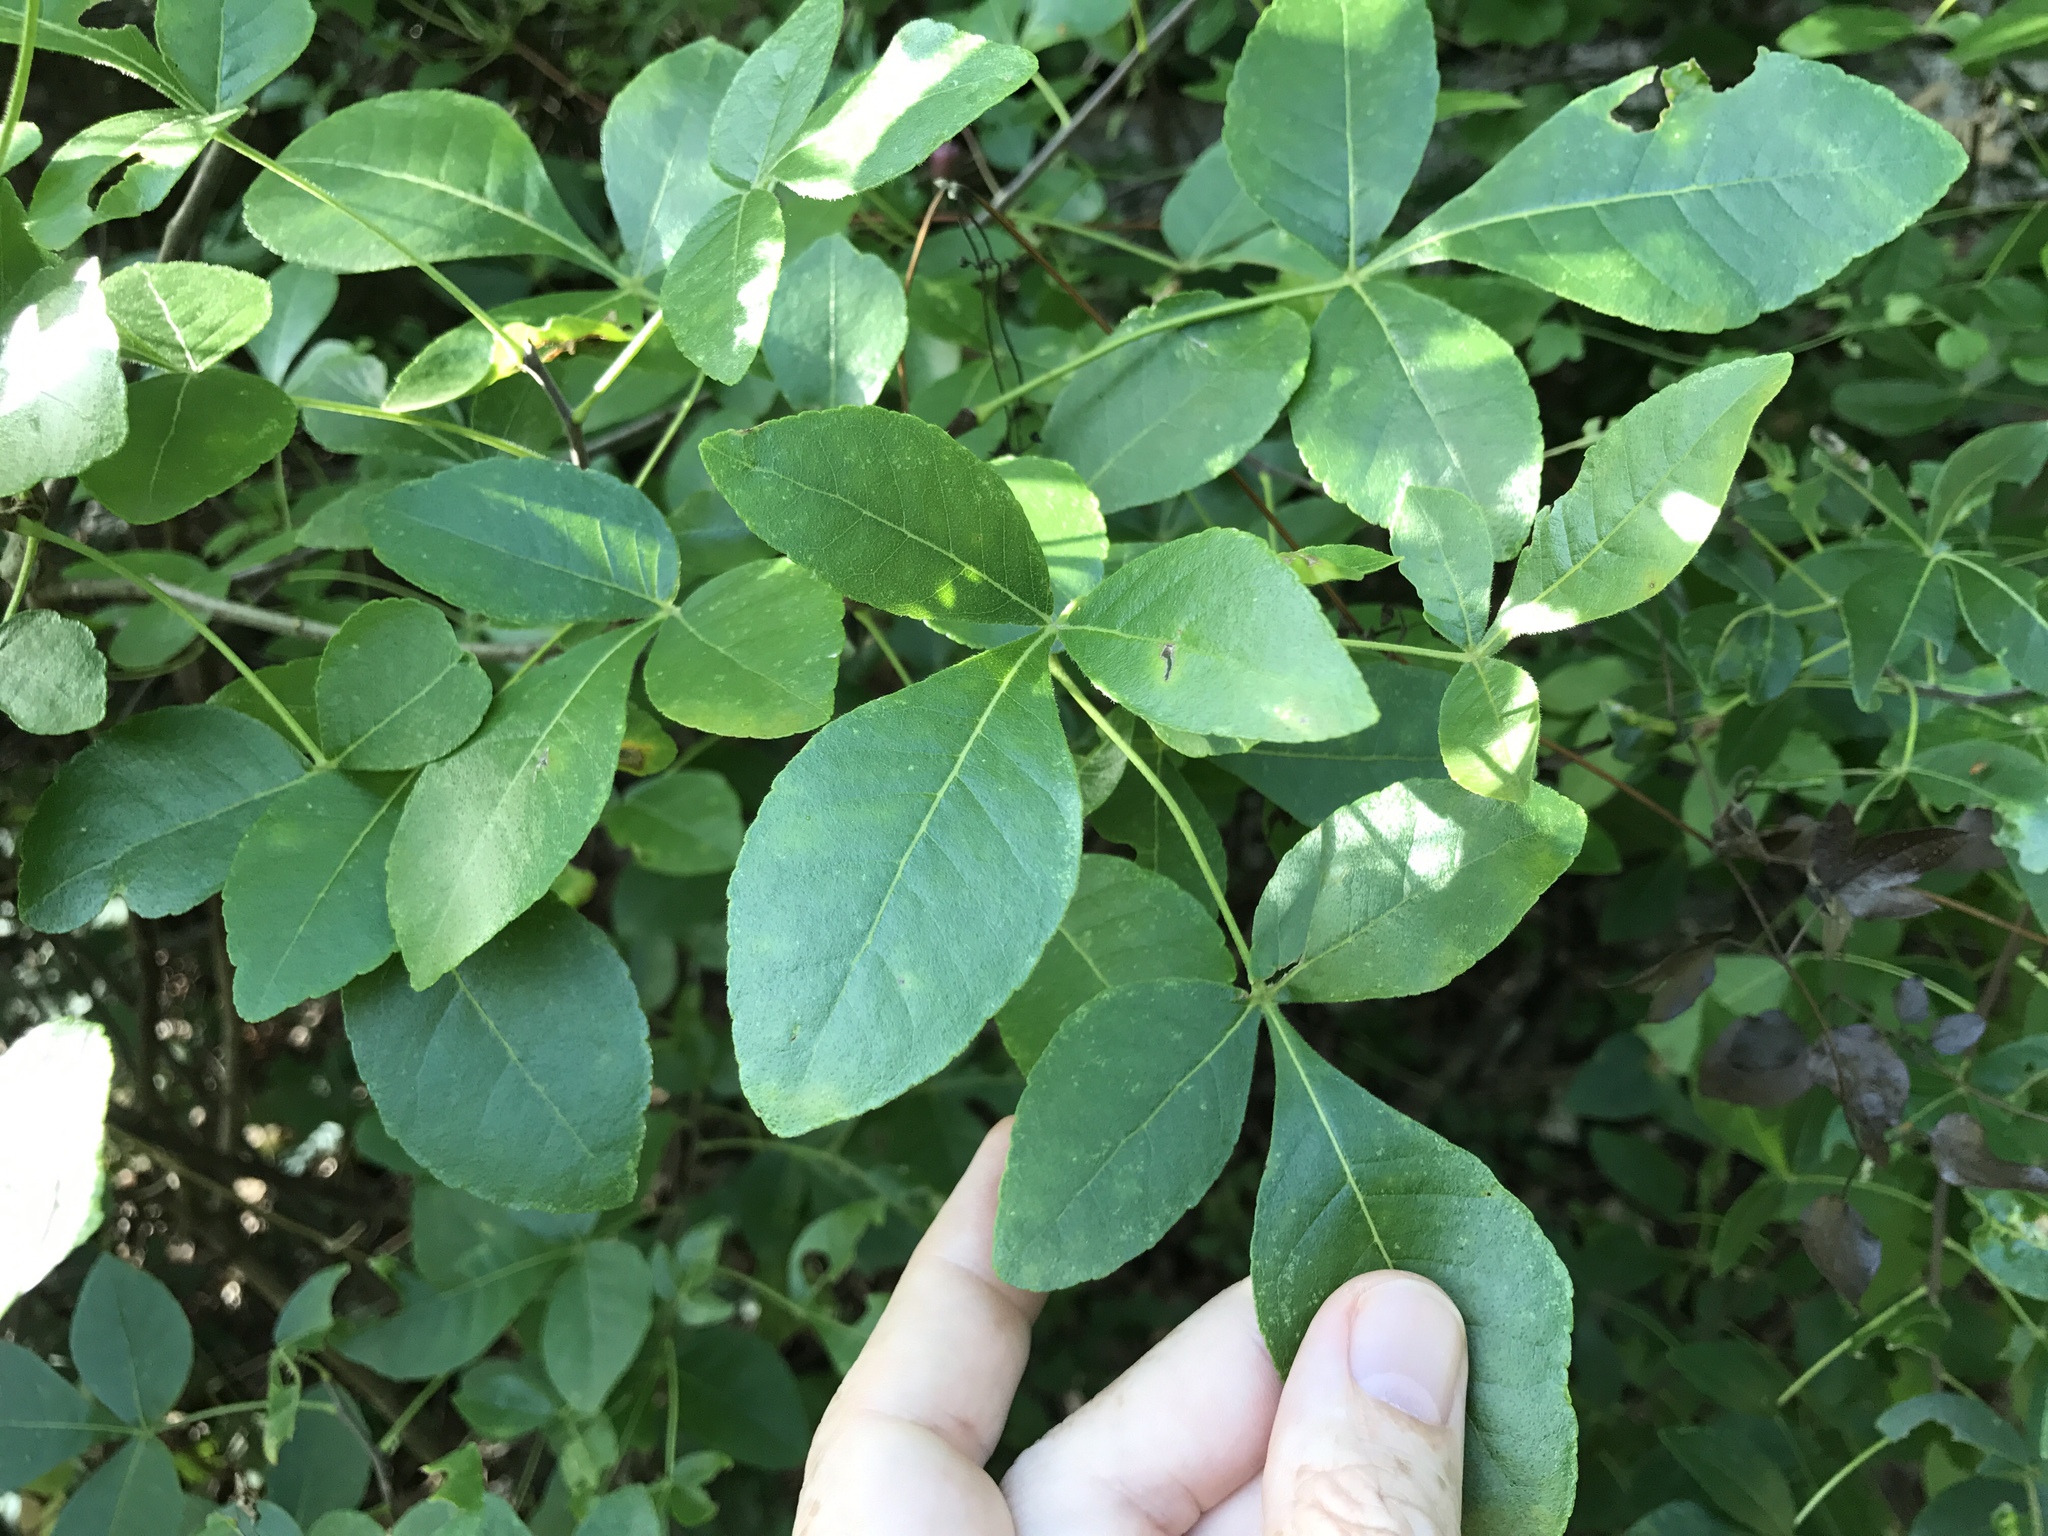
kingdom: Plantae
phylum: Tracheophyta
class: Magnoliopsida
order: Sapindales
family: Rutaceae
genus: Ptelea
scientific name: Ptelea trifoliata
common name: Common hop-tree
